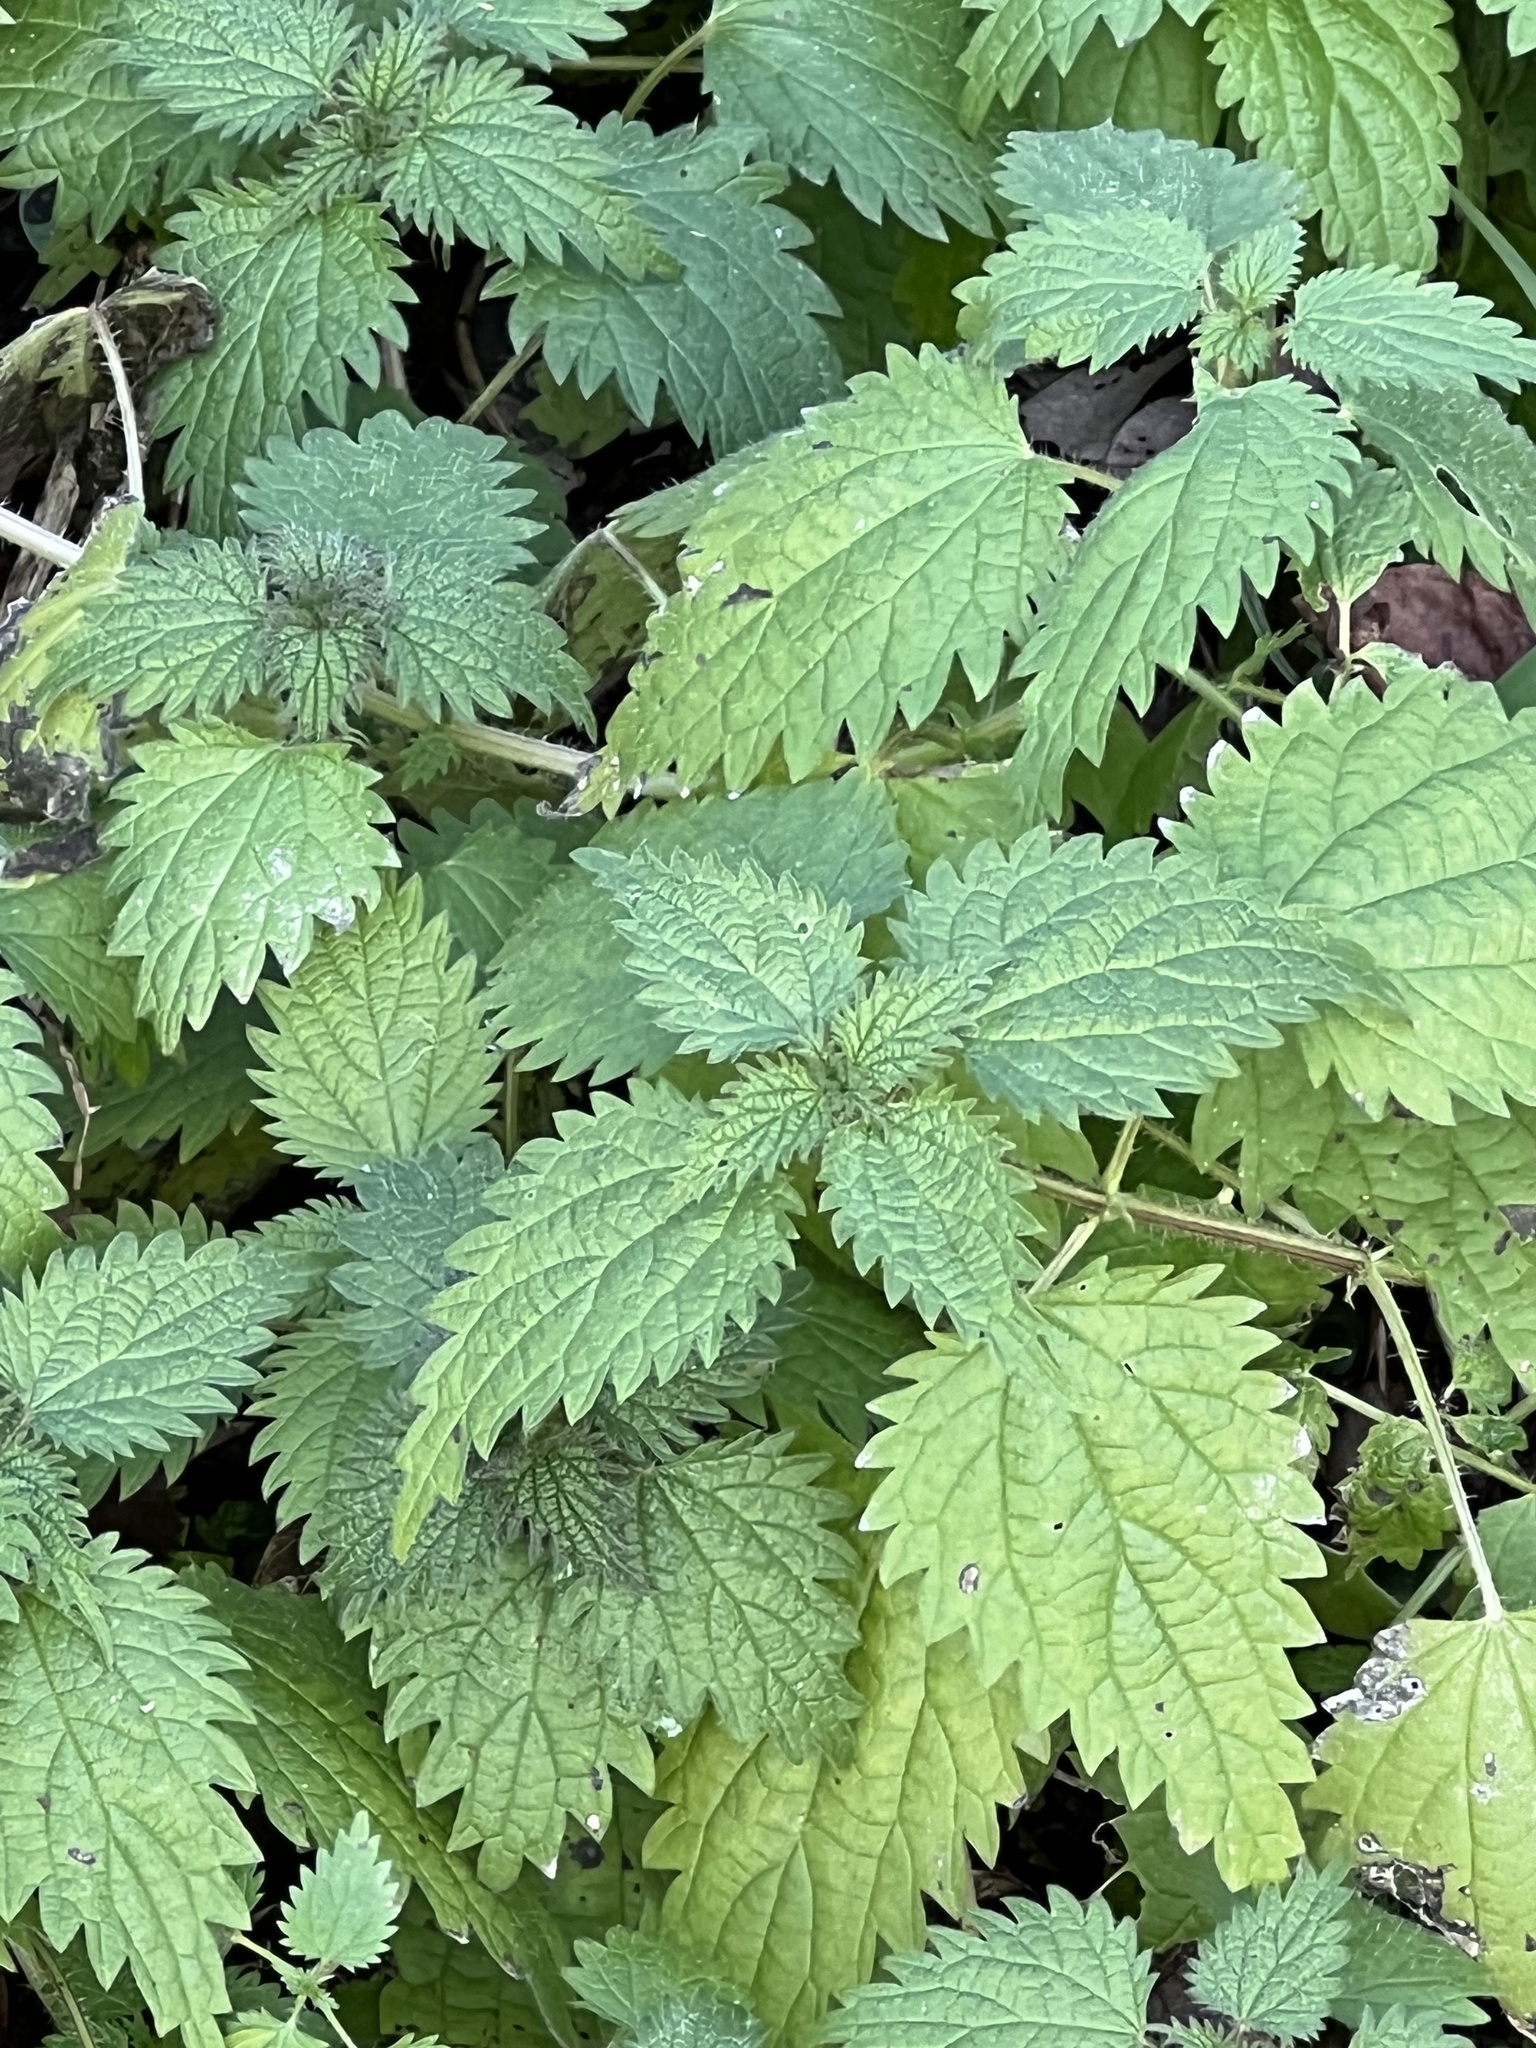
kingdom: Plantae
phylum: Tracheophyta
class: Magnoliopsida
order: Rosales
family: Urticaceae
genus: Urtica
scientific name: Urtica dioica
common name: Common nettle
